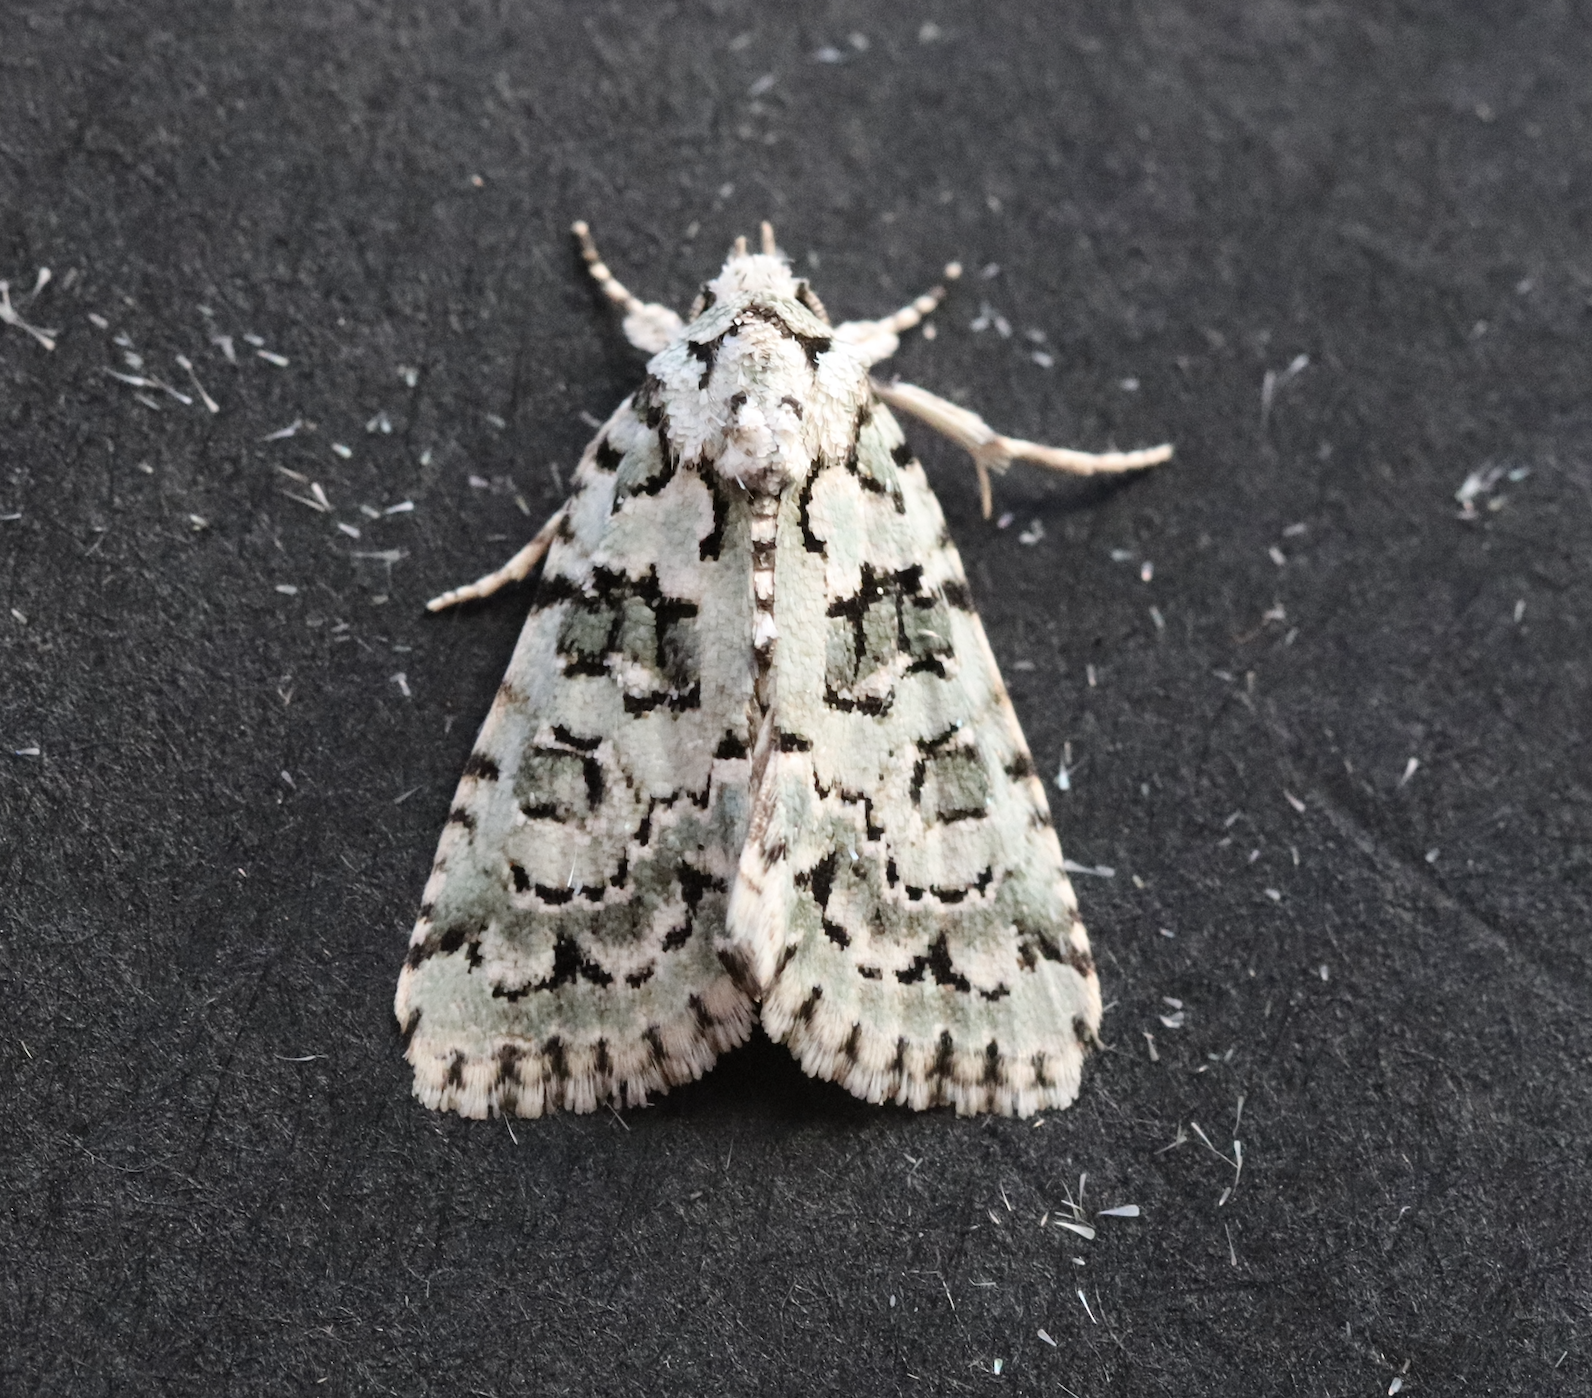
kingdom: Animalia
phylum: Arthropoda
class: Insecta
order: Lepidoptera
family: Noctuidae
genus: Nyctobrya
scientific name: Nyctobrya muralis
